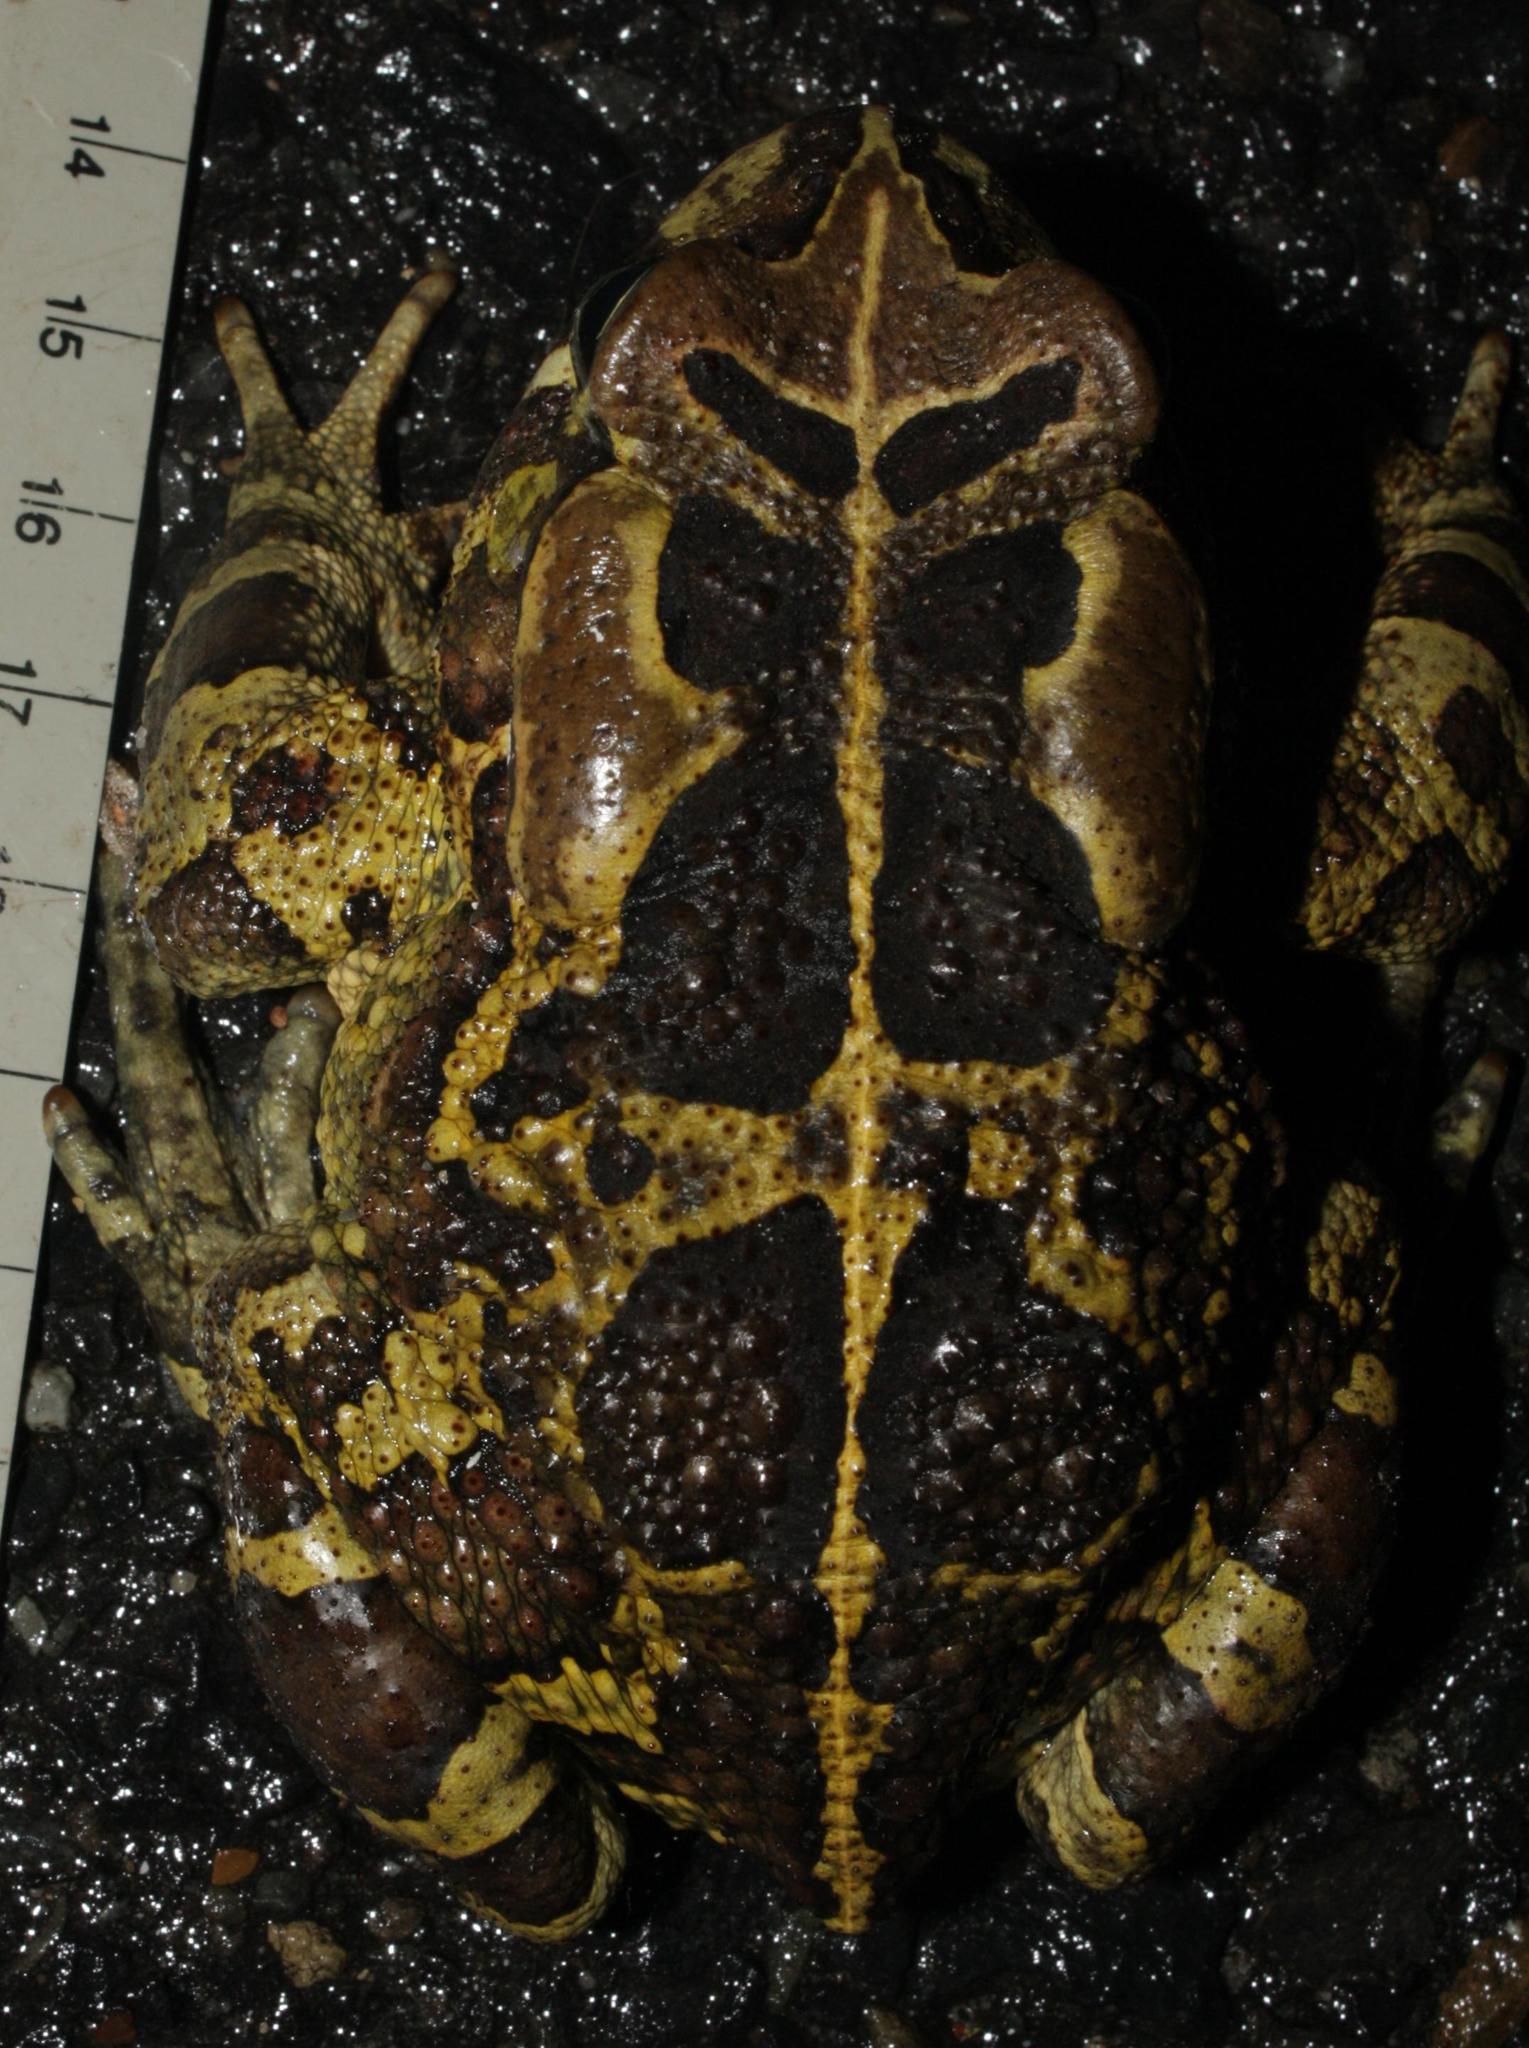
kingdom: Animalia
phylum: Chordata
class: Amphibia
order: Anura
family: Bufonidae
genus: Sclerophrys
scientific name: Sclerophrys pantherina
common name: Panther toad
